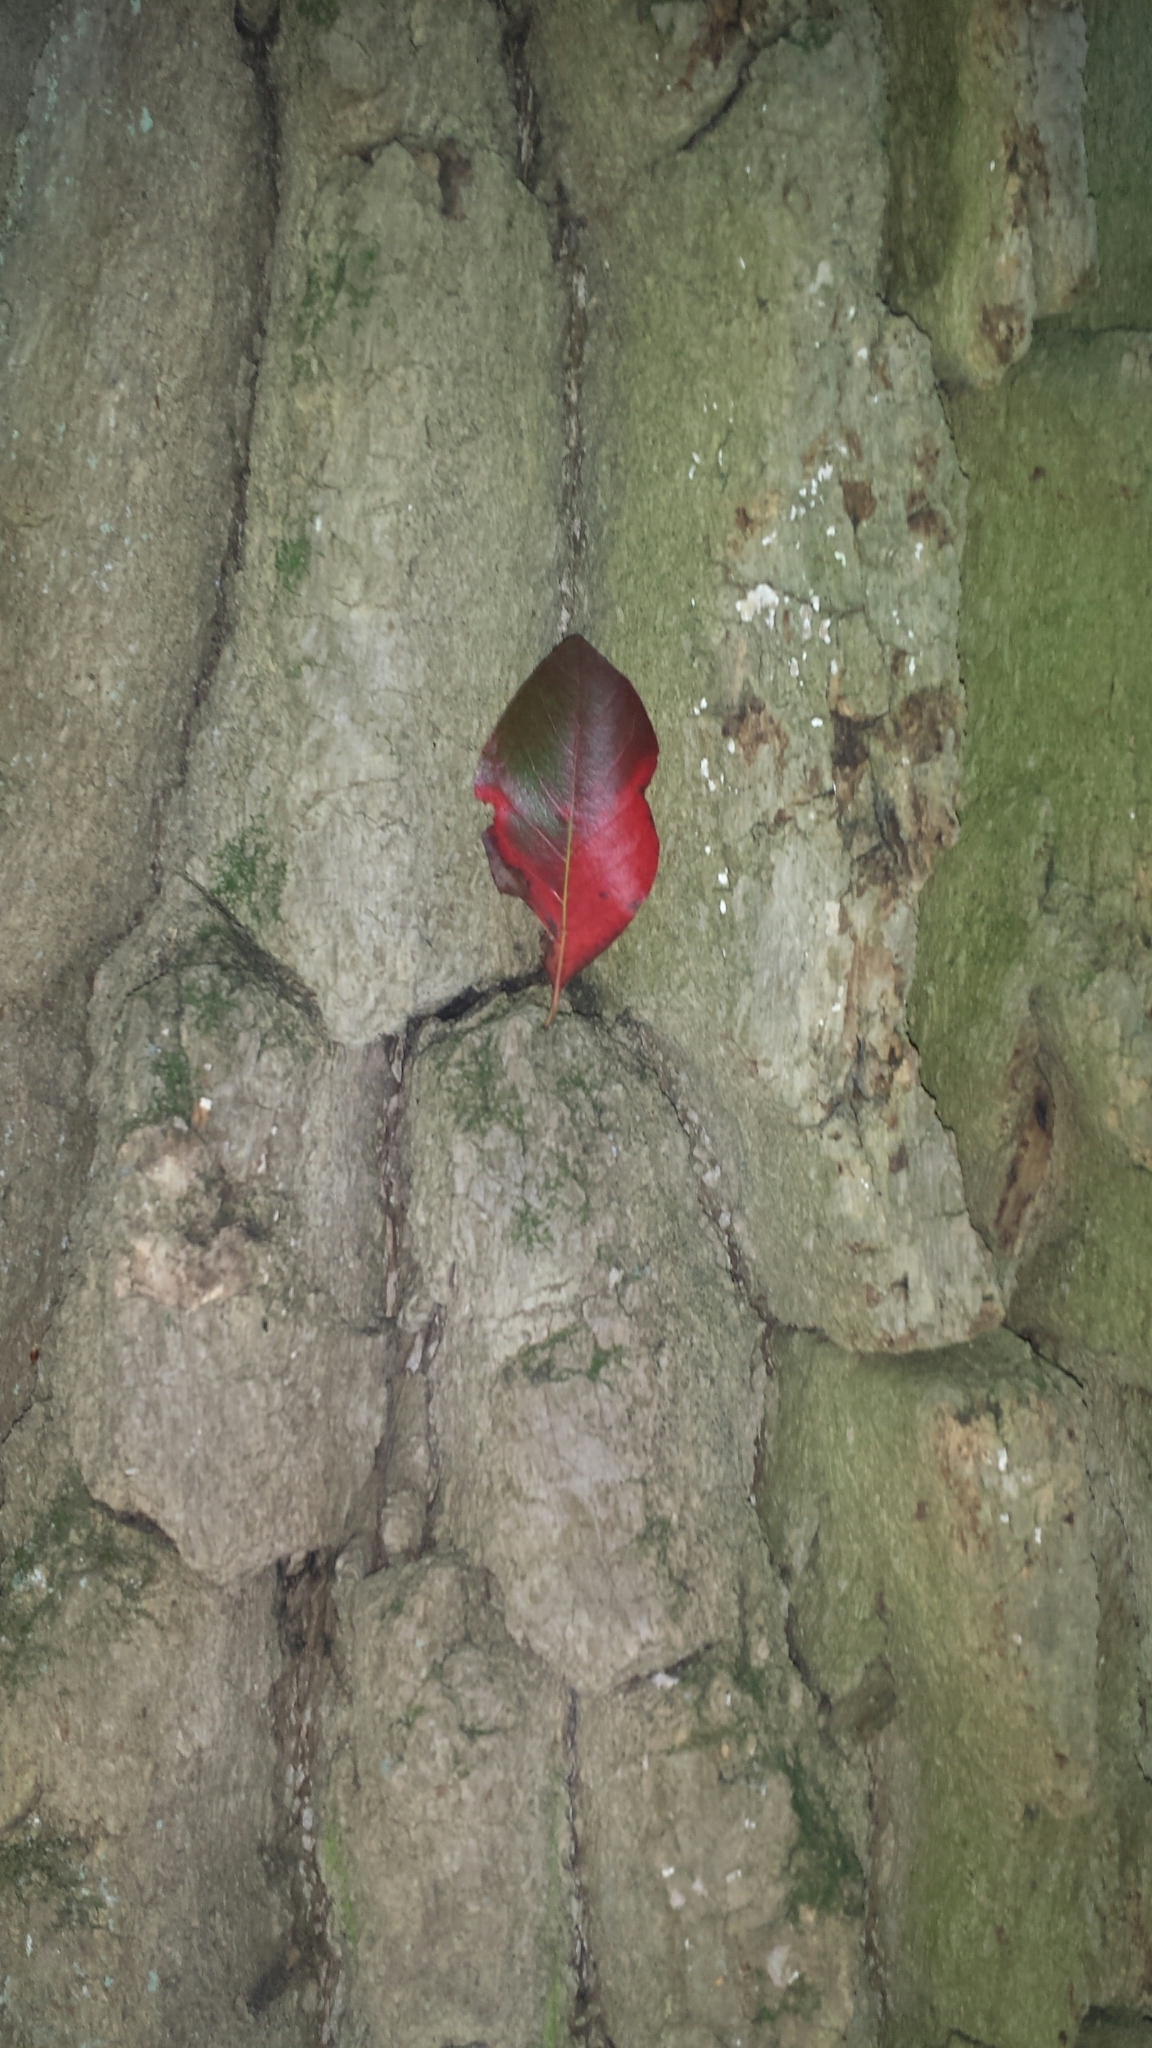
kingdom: Plantae
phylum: Tracheophyta
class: Magnoliopsida
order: Cornales
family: Nyssaceae
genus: Nyssa
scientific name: Nyssa sylvatica
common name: Black tupelo
